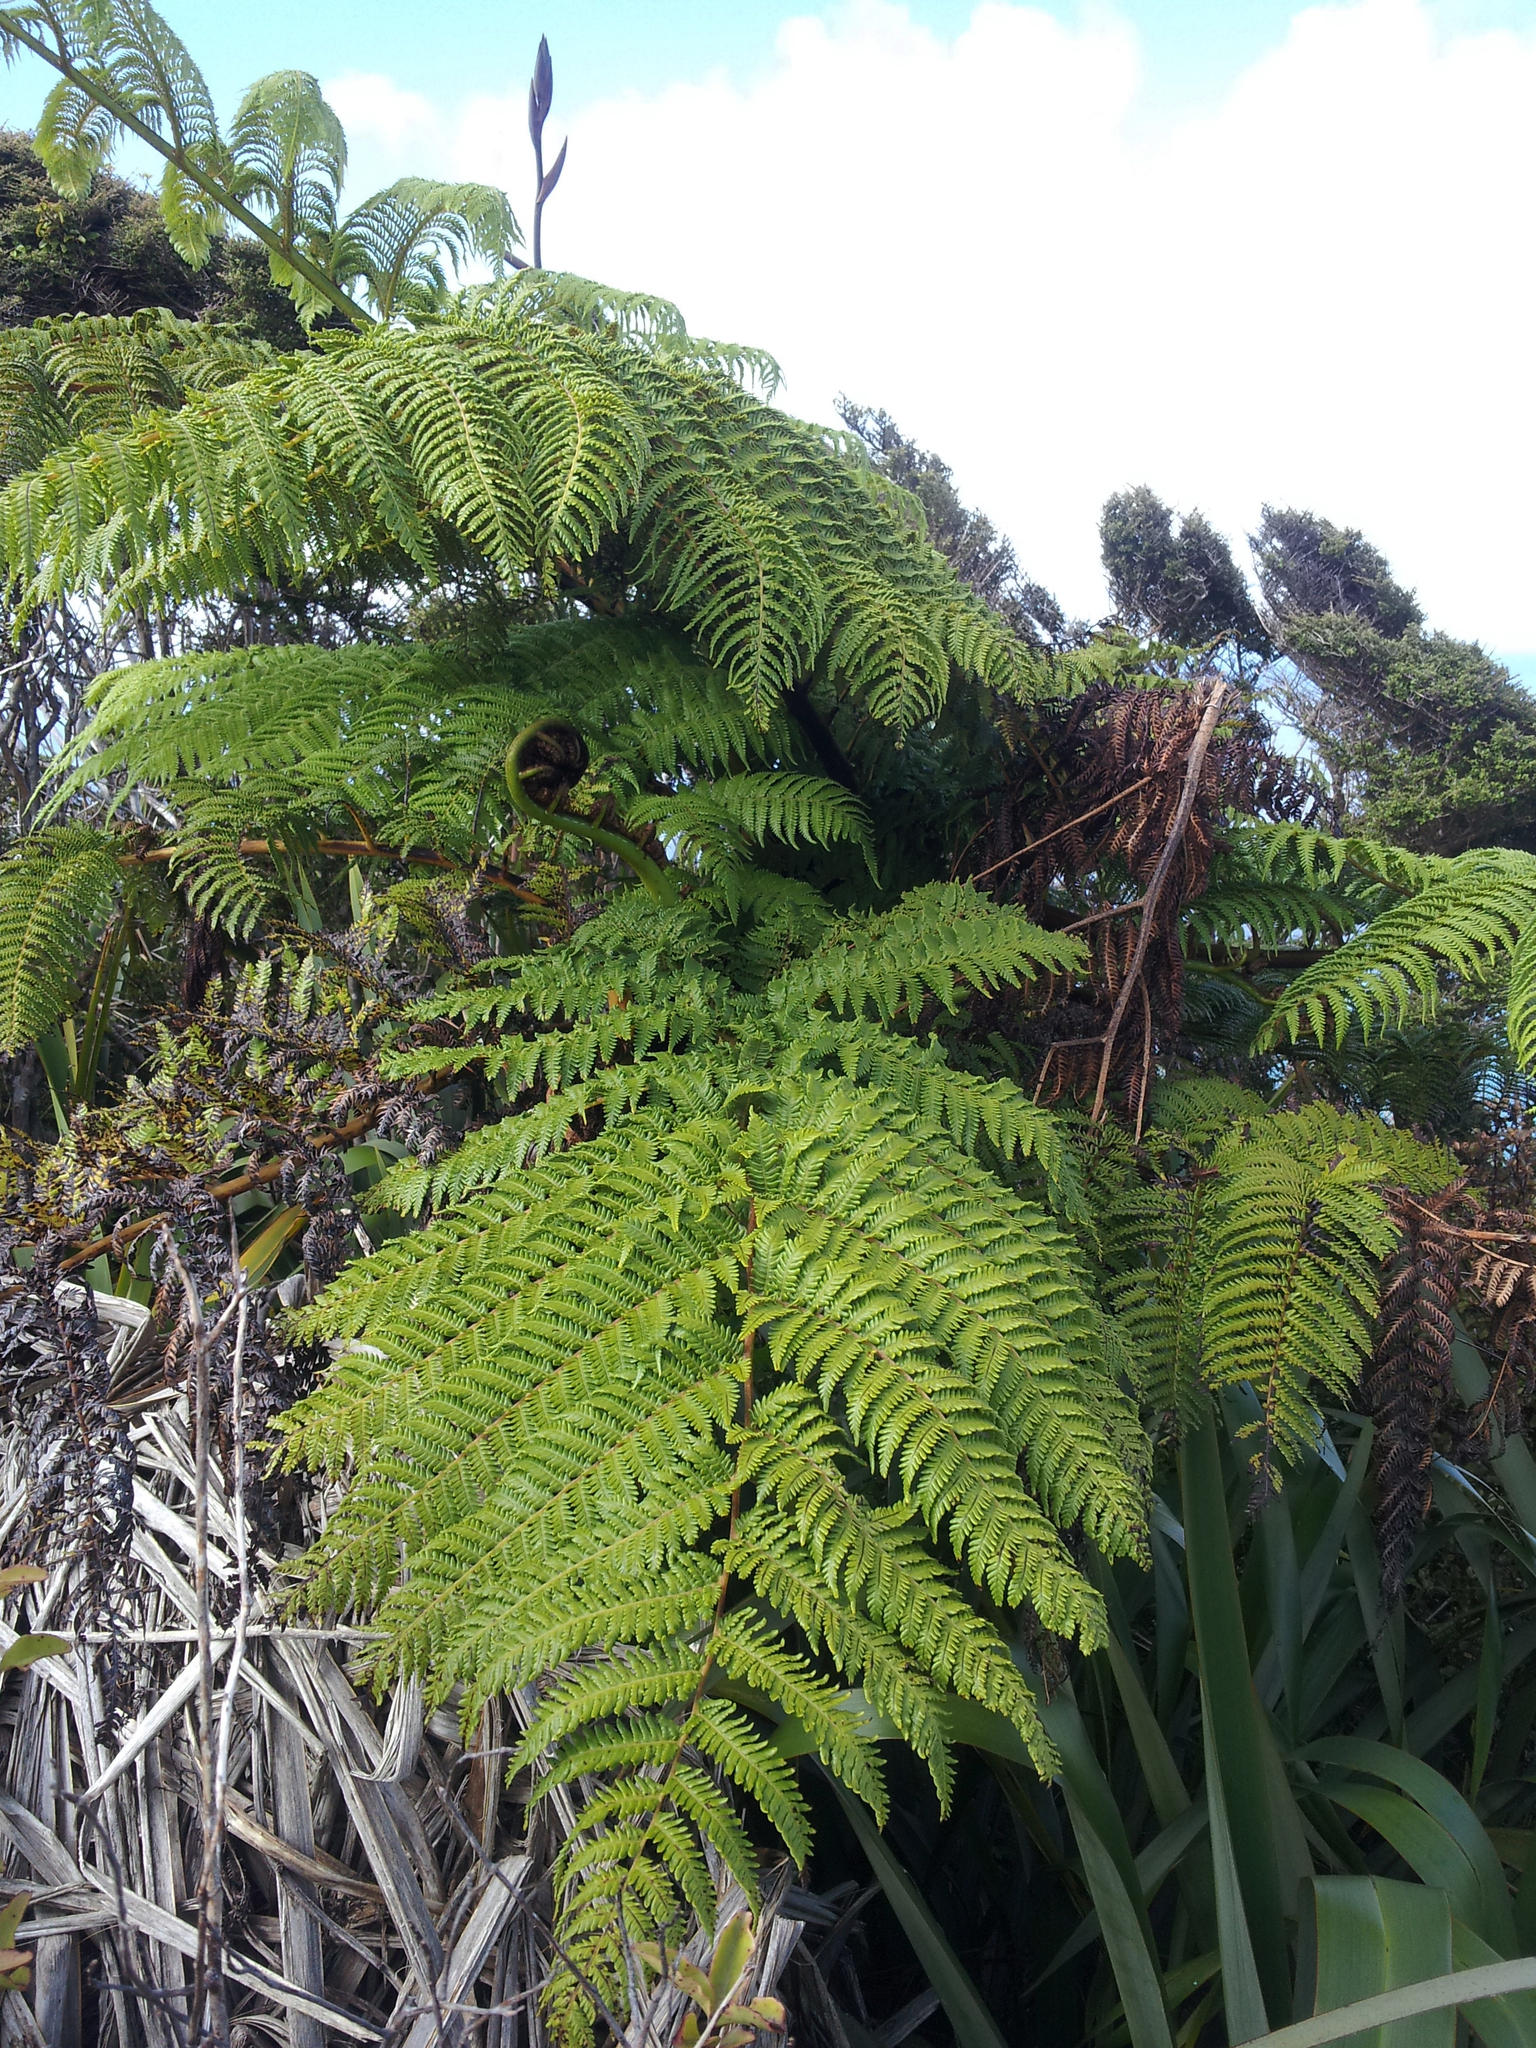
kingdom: Plantae
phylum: Tracheophyta
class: Polypodiopsida
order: Cyatheales
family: Cyatheaceae
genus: Sphaeropteris
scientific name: Sphaeropteris medullaris
